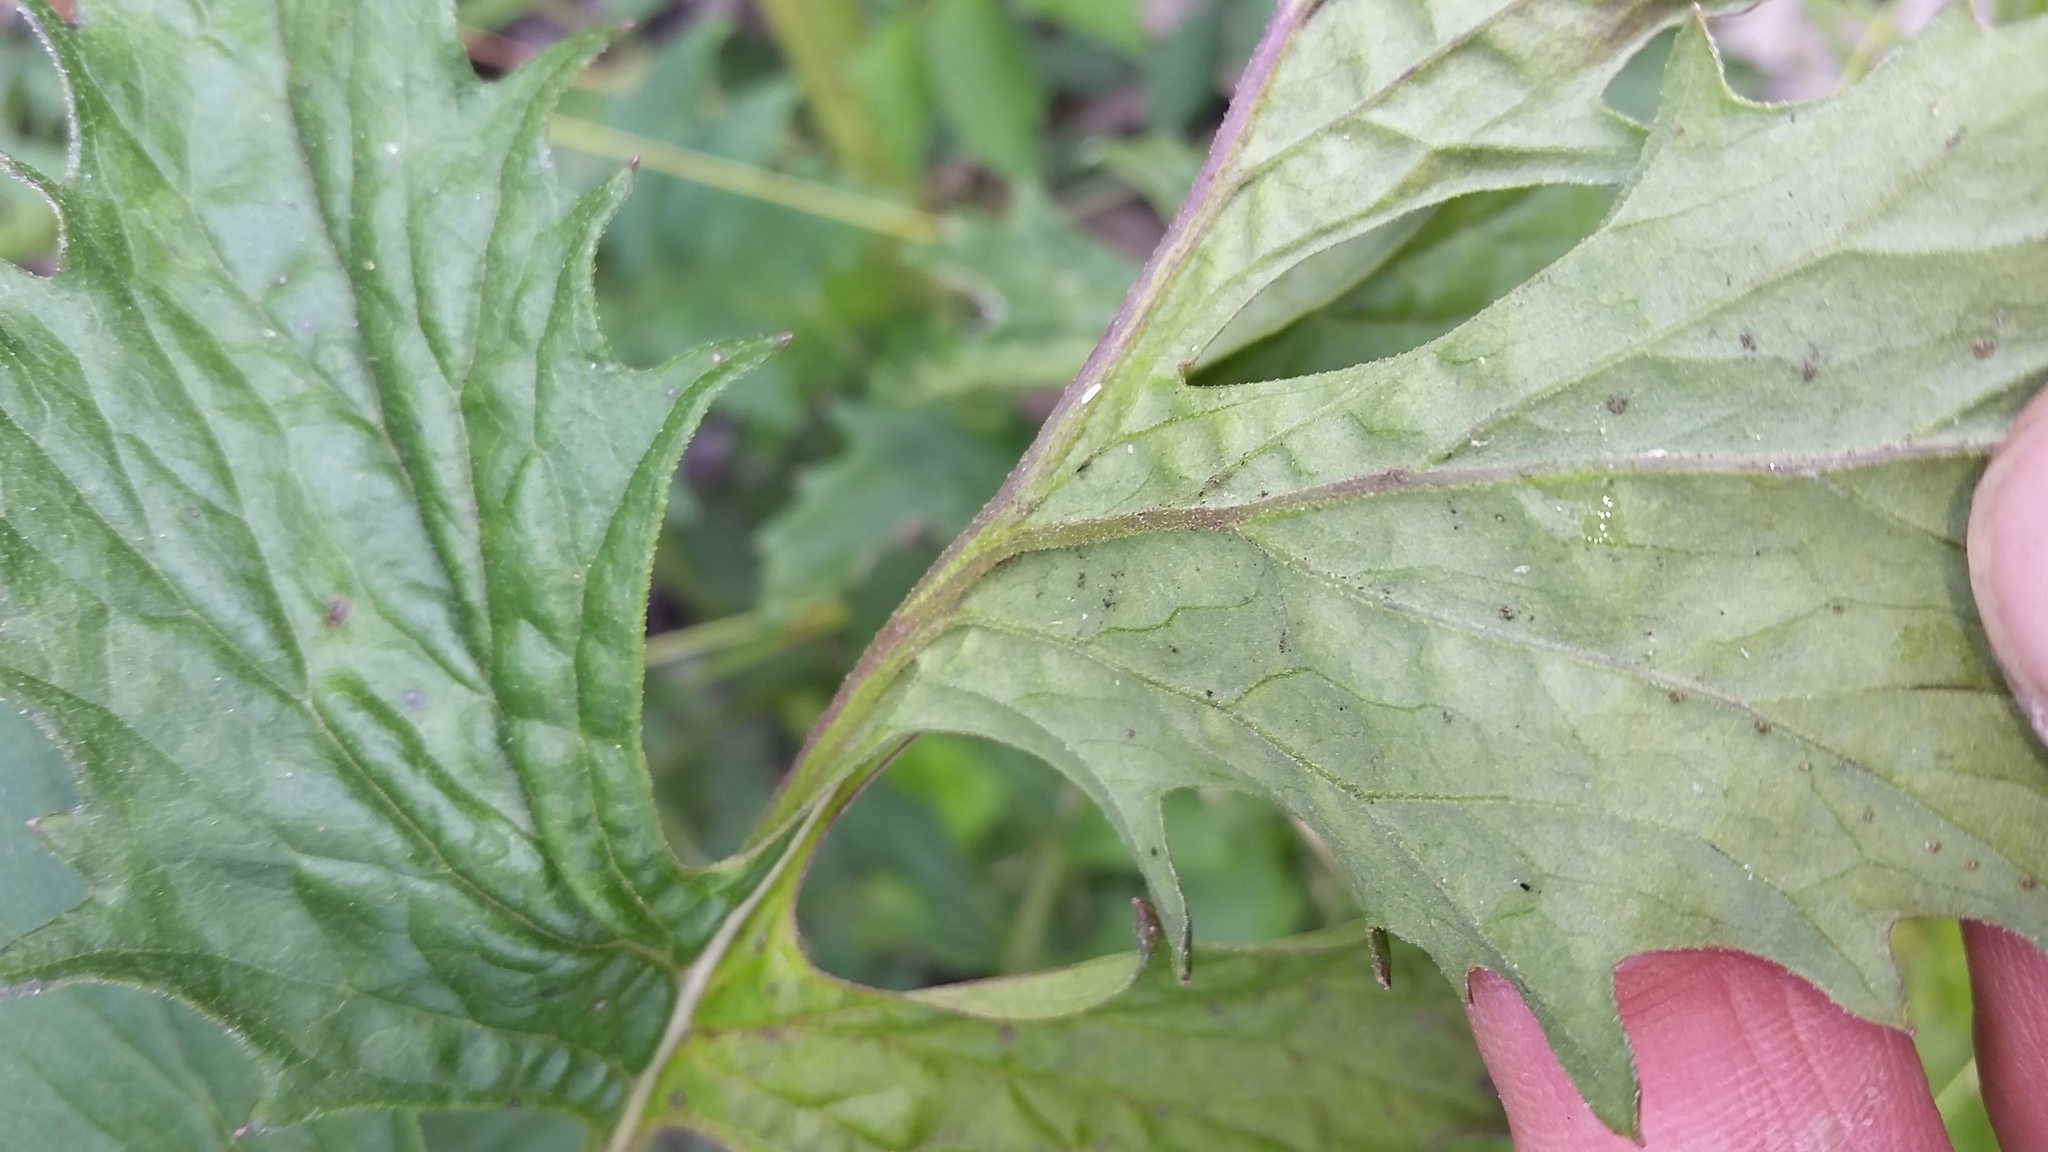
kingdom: Plantae
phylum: Tracheophyta
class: Magnoliopsida
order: Asterales
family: Asteraceae
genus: Erechtites
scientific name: Erechtites valerianifolius
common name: Tropical burnweed
